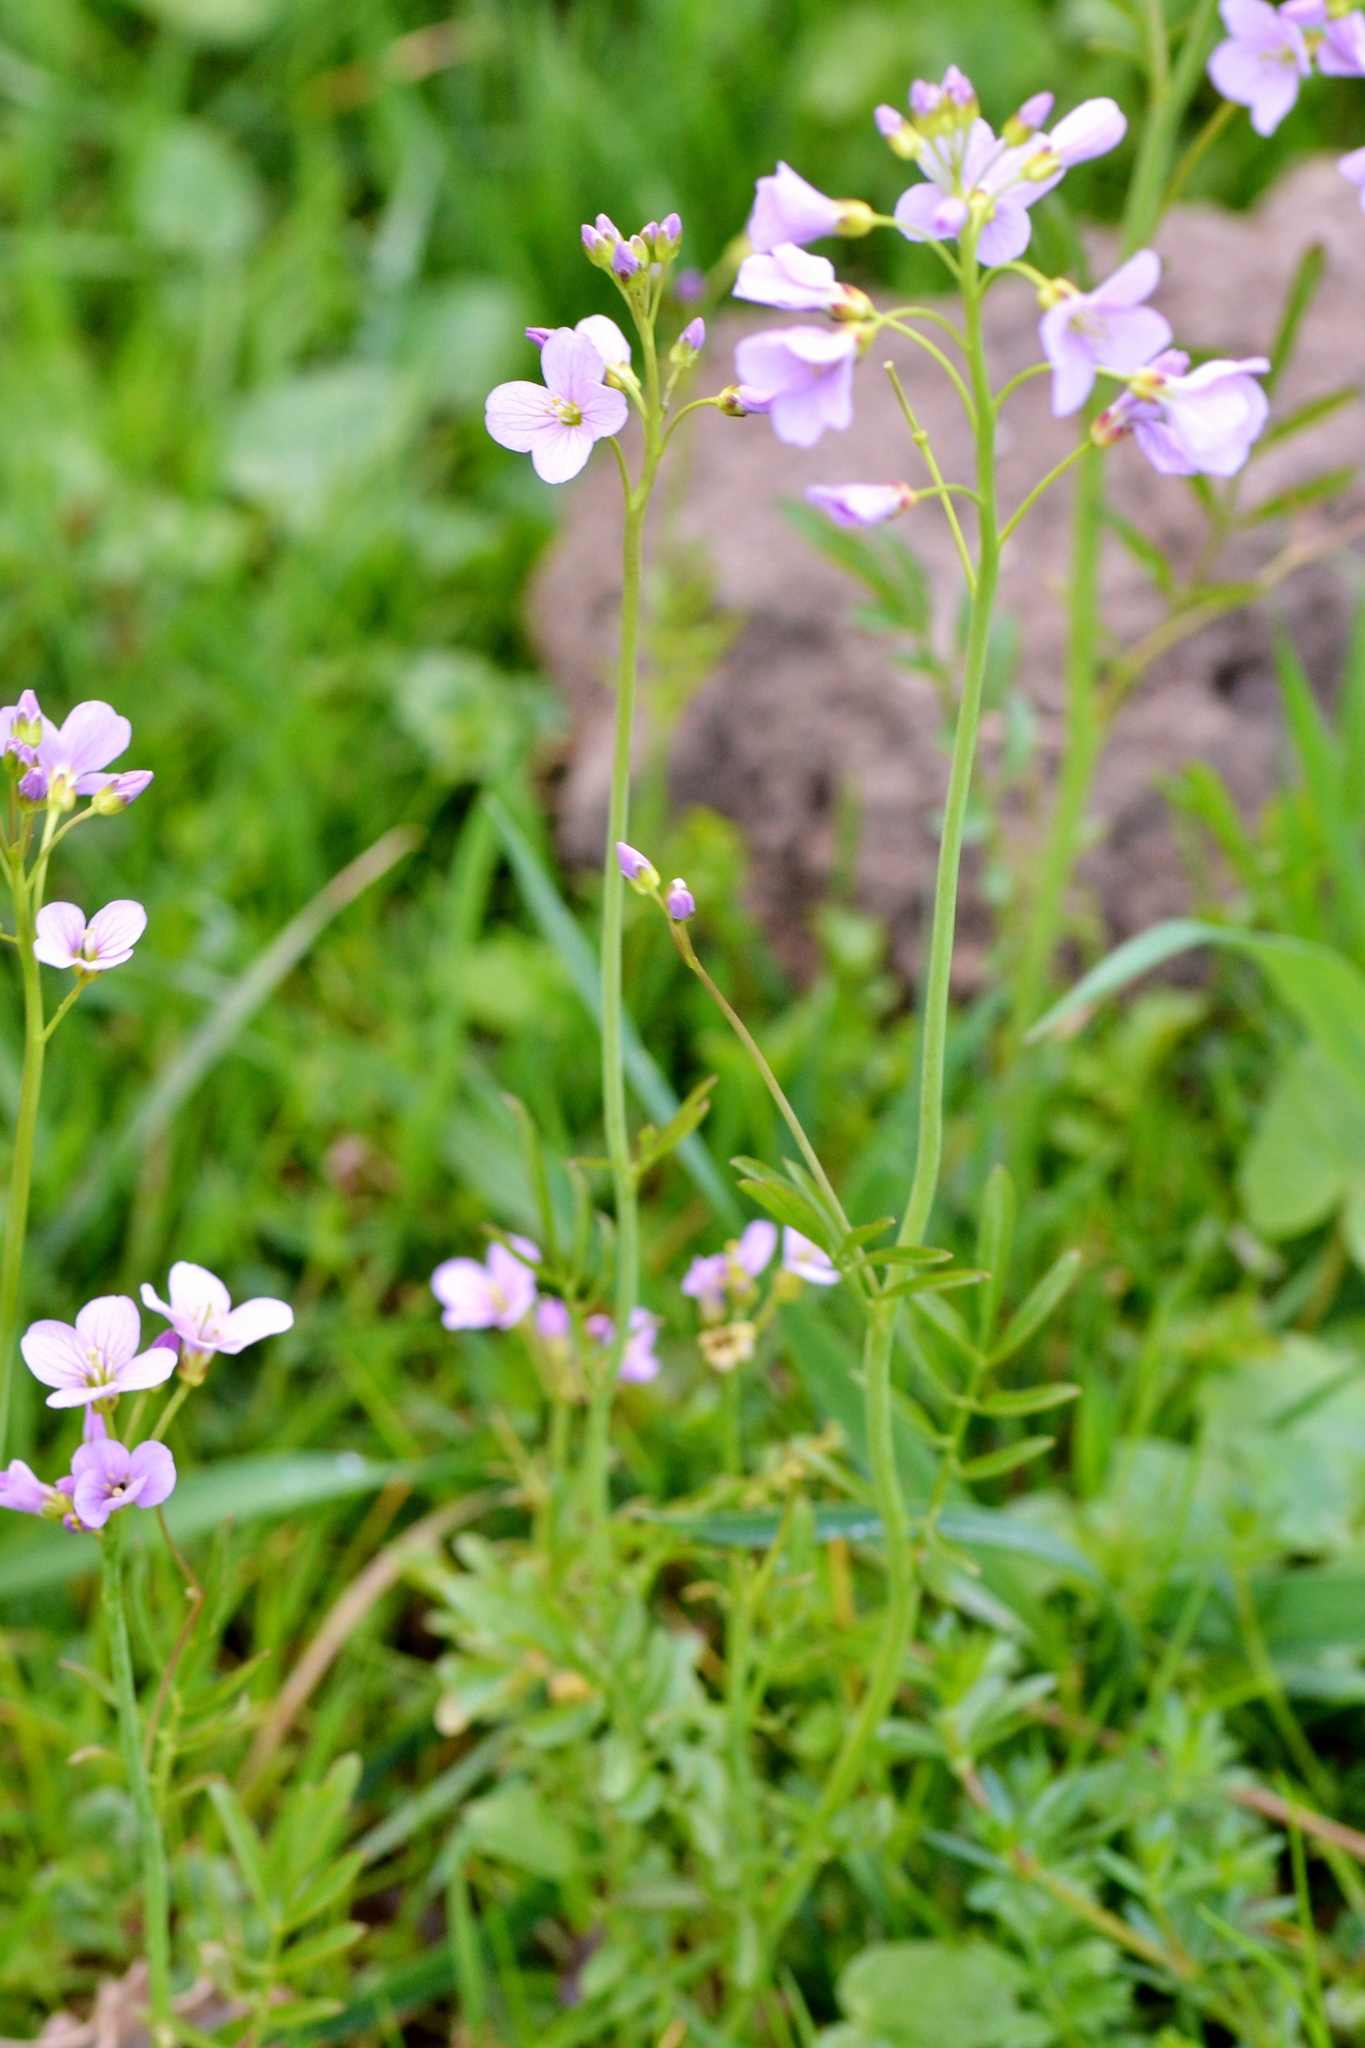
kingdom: Plantae
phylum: Tracheophyta
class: Magnoliopsida
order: Brassicales
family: Brassicaceae
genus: Cardamine
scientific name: Cardamine pratensis
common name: Cuckoo flower
